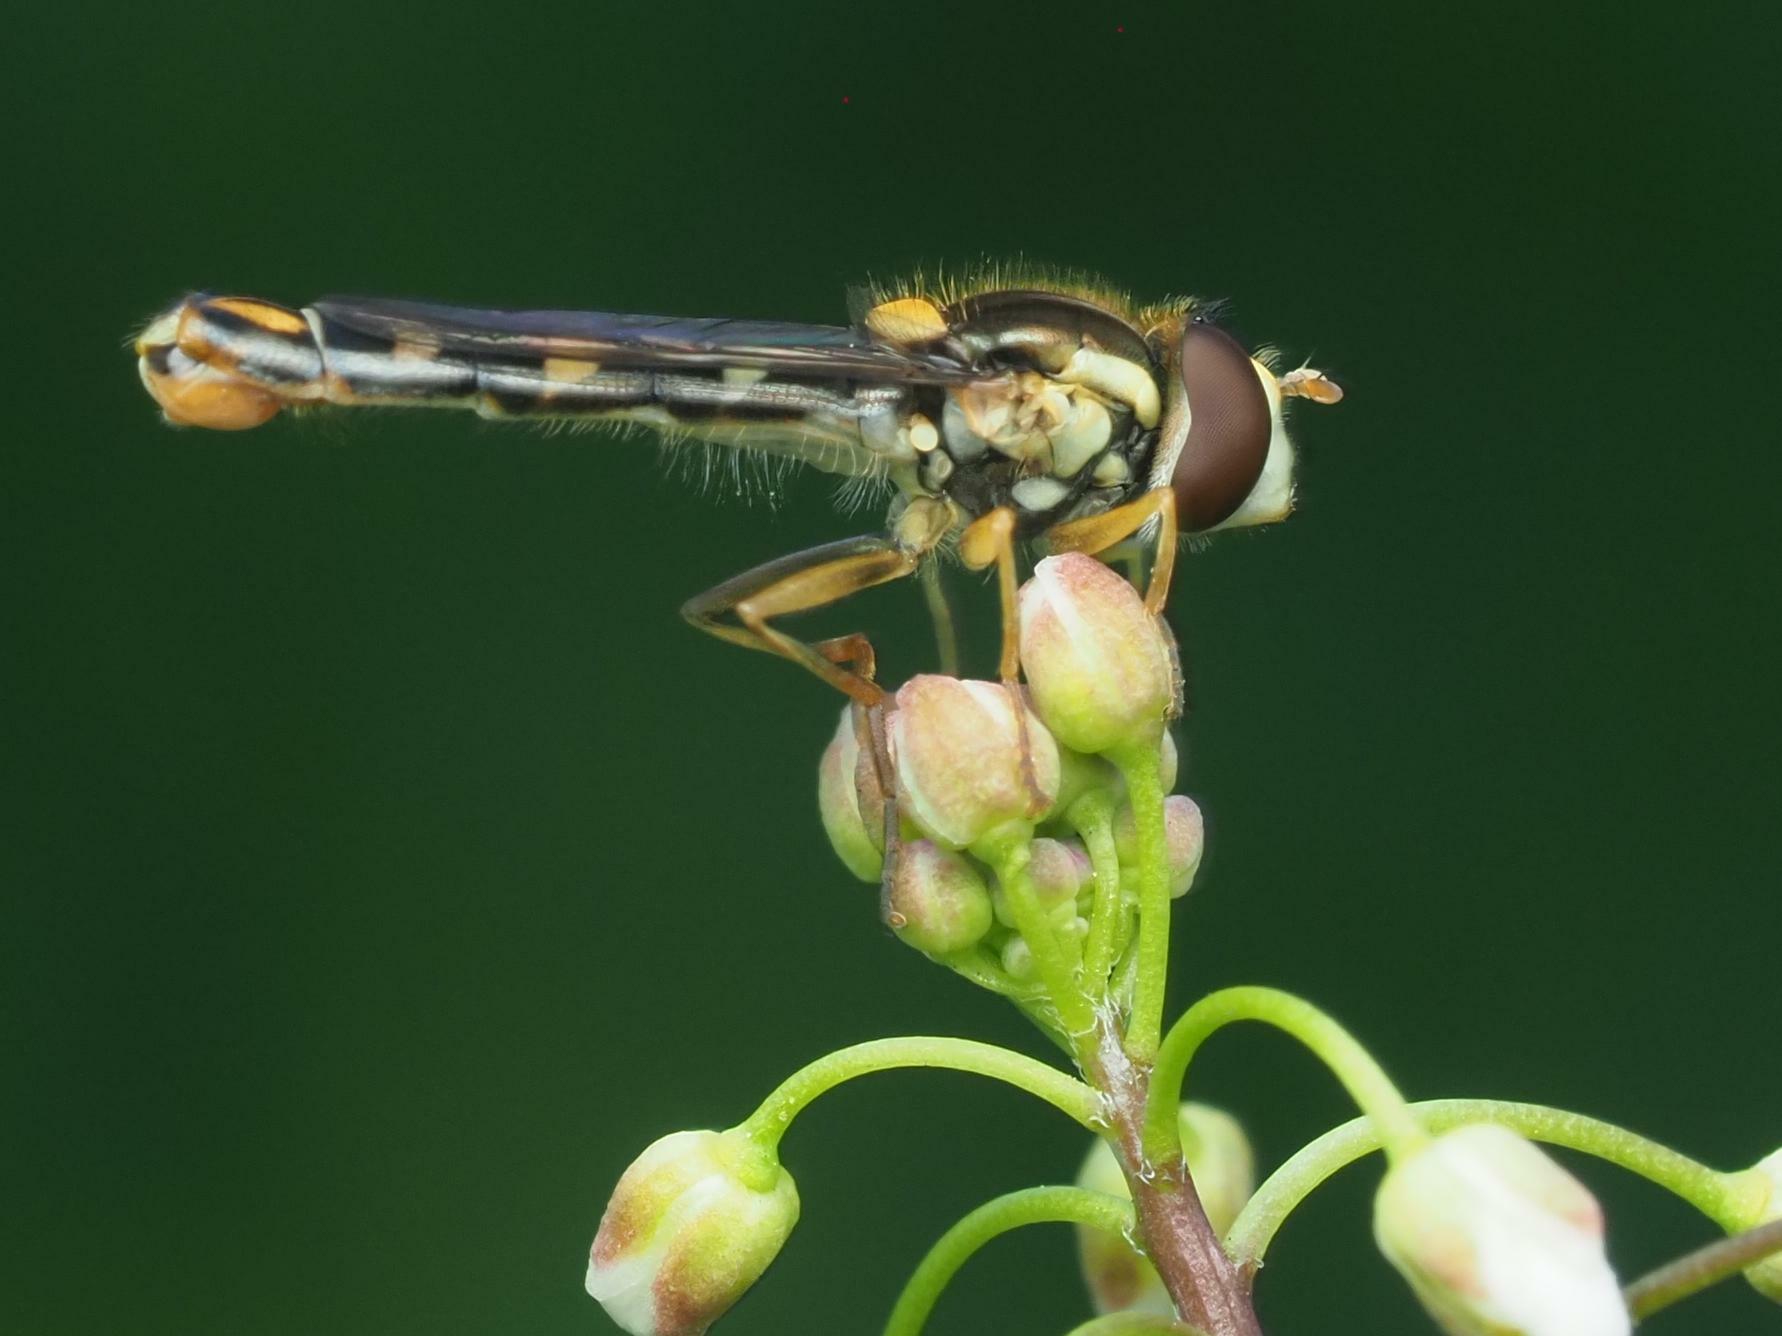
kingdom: Animalia
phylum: Arthropoda
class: Insecta
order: Diptera
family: Syrphidae
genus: Sphaerophoria
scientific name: Sphaerophoria scripta
